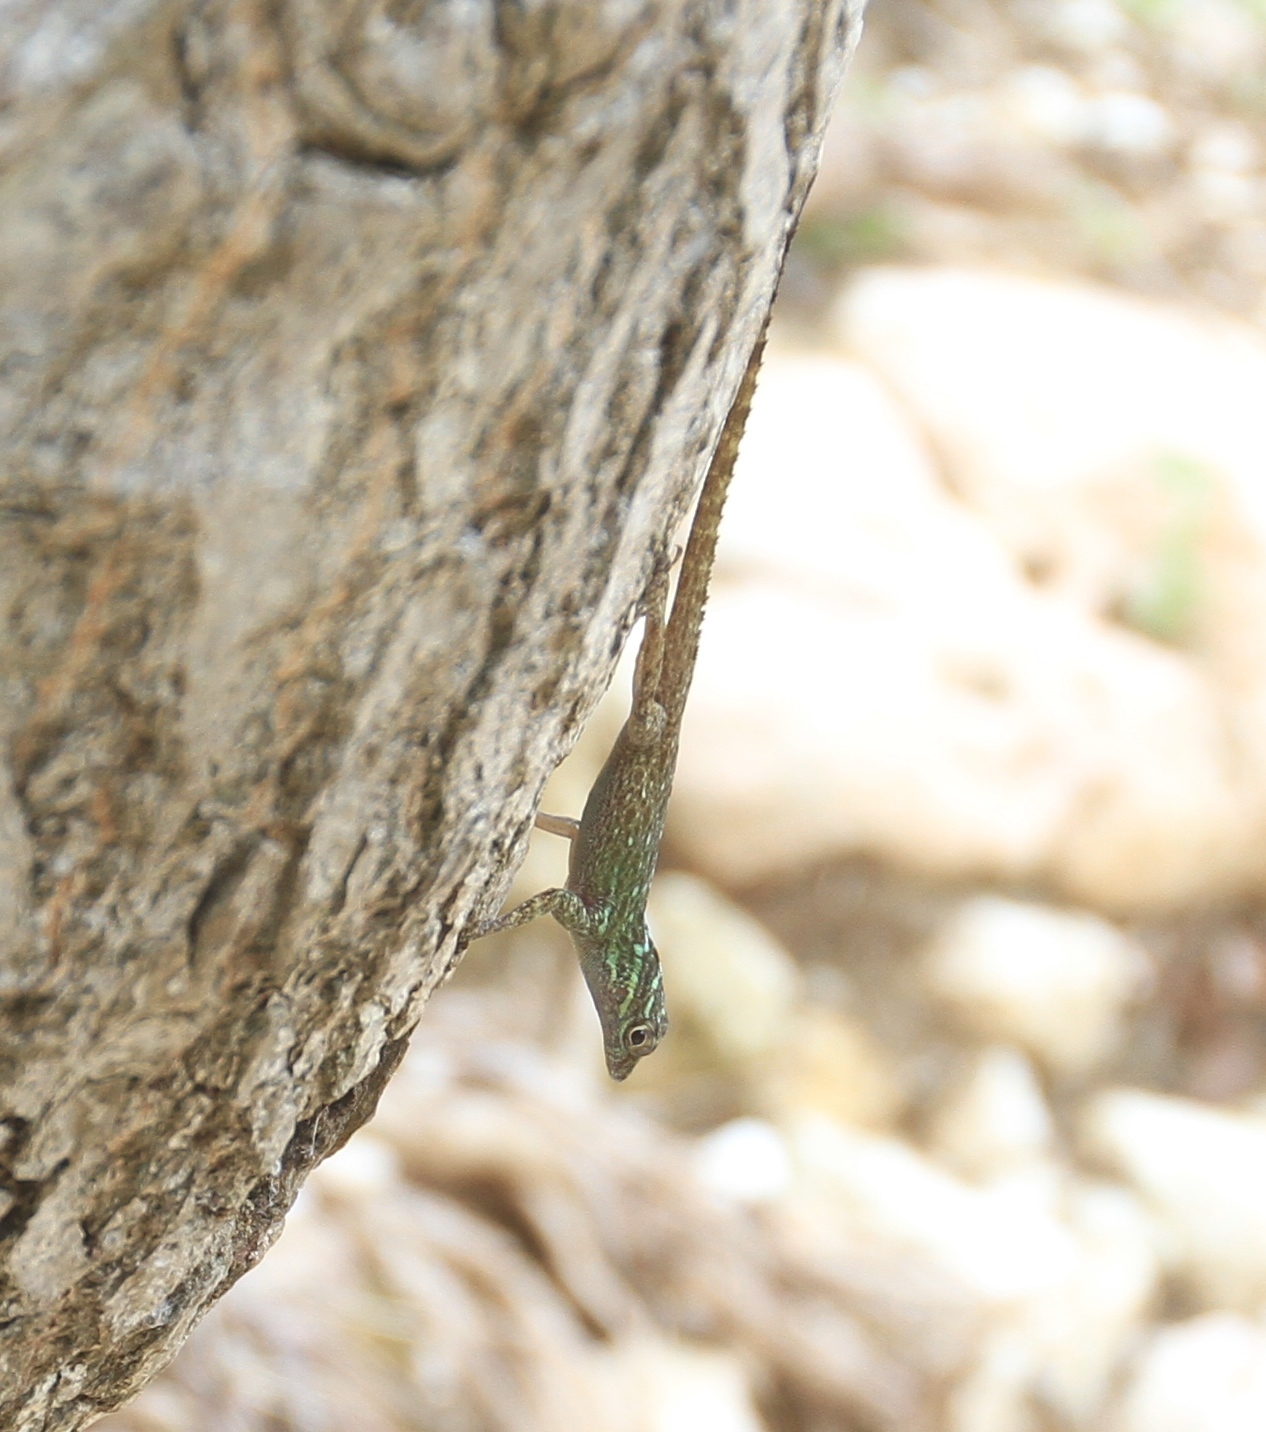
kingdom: Animalia
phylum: Chordata
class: Squamata
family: Dactyloidae
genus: Anolis
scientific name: Anolis vinosus
